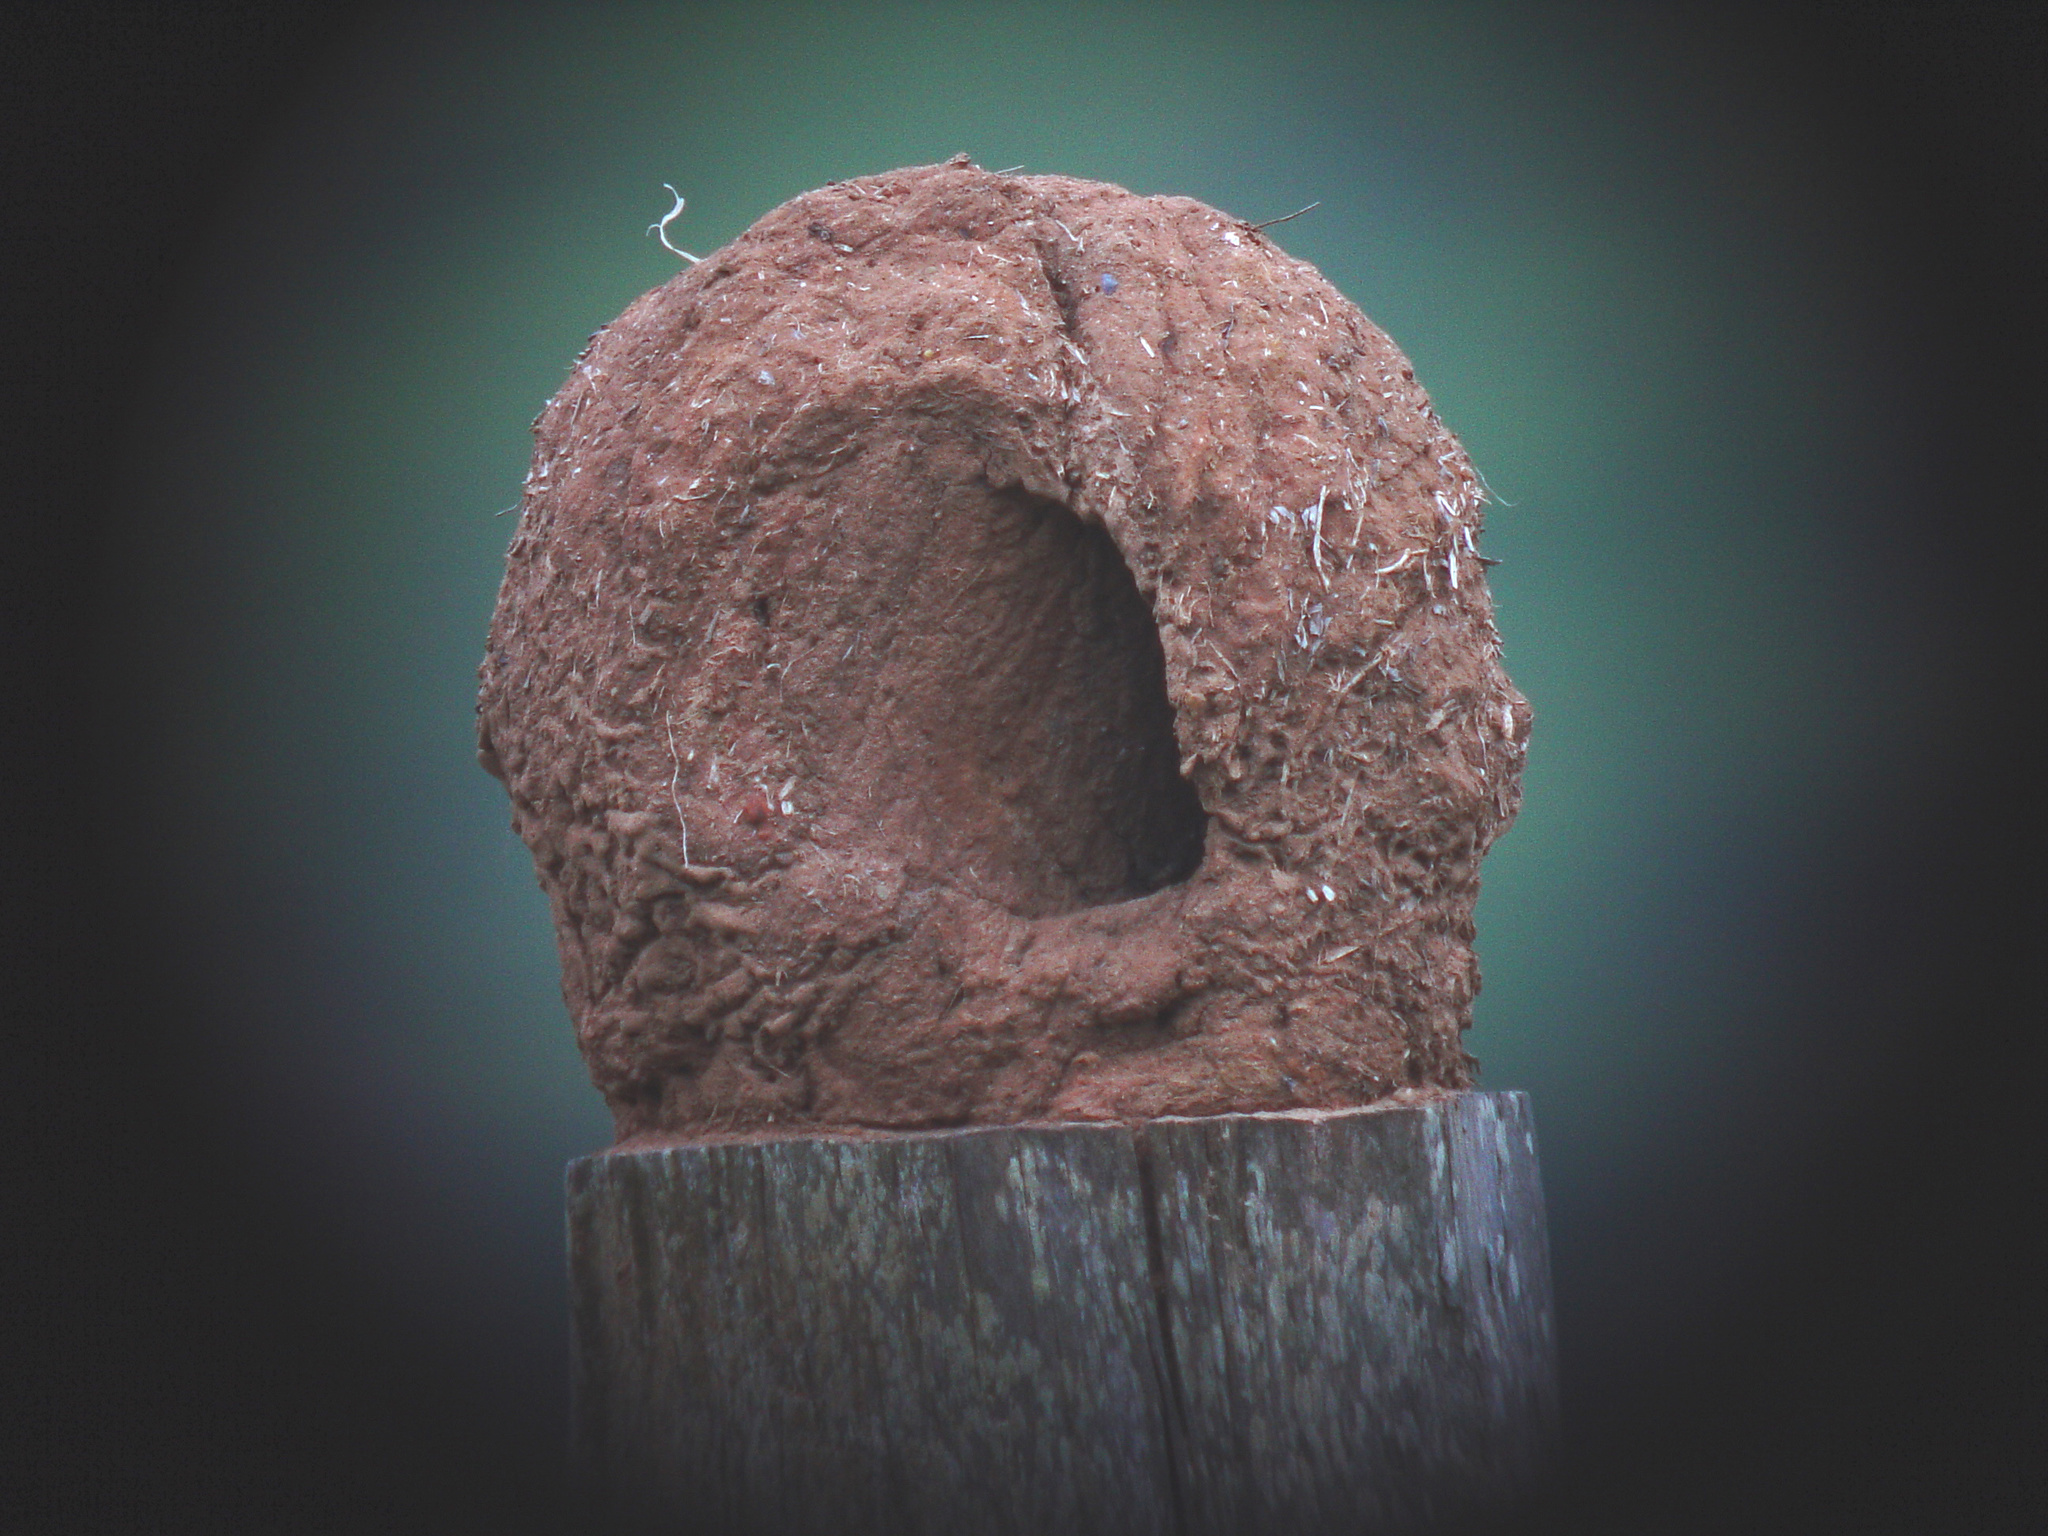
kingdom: Animalia
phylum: Chordata
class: Aves
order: Passeriformes
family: Furnariidae
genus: Furnarius
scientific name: Furnarius rufus
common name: Rufous hornero
